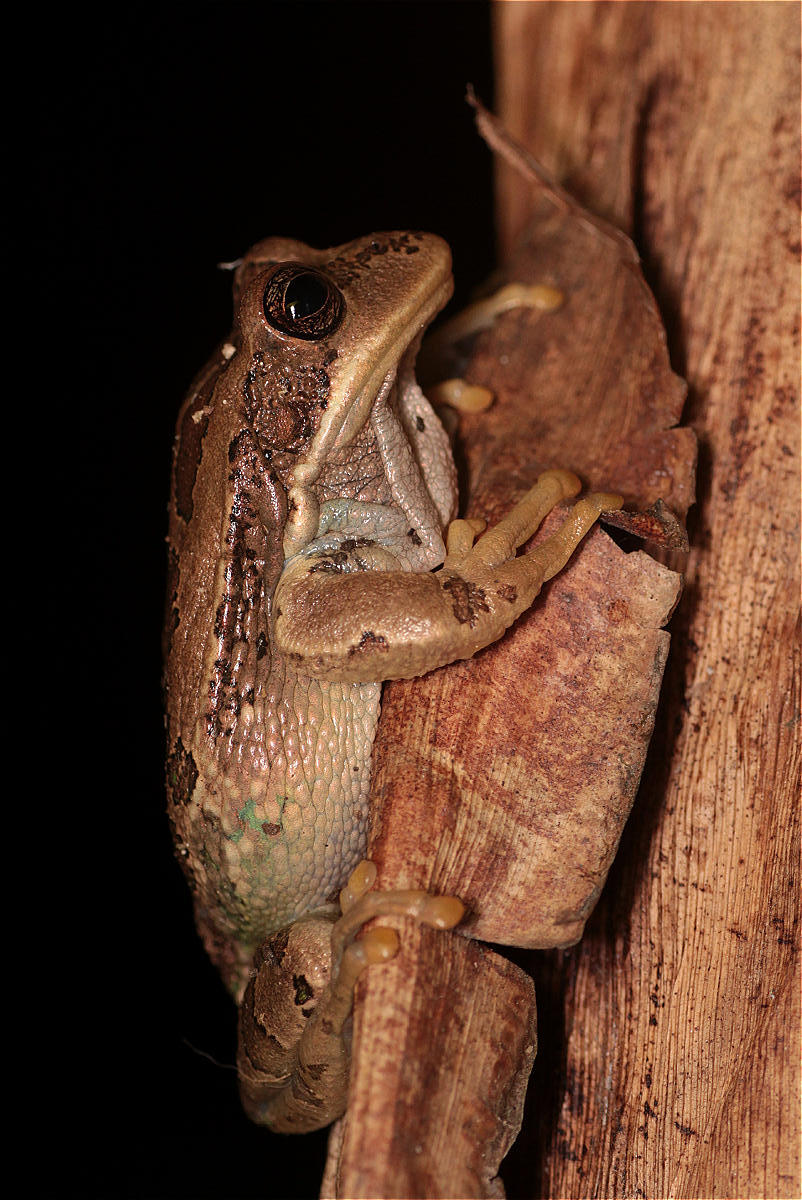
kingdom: Animalia
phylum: Chordata
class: Amphibia
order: Anura
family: Hemiphractidae
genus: Gastrotheca
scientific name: Gastrotheca cuencana
